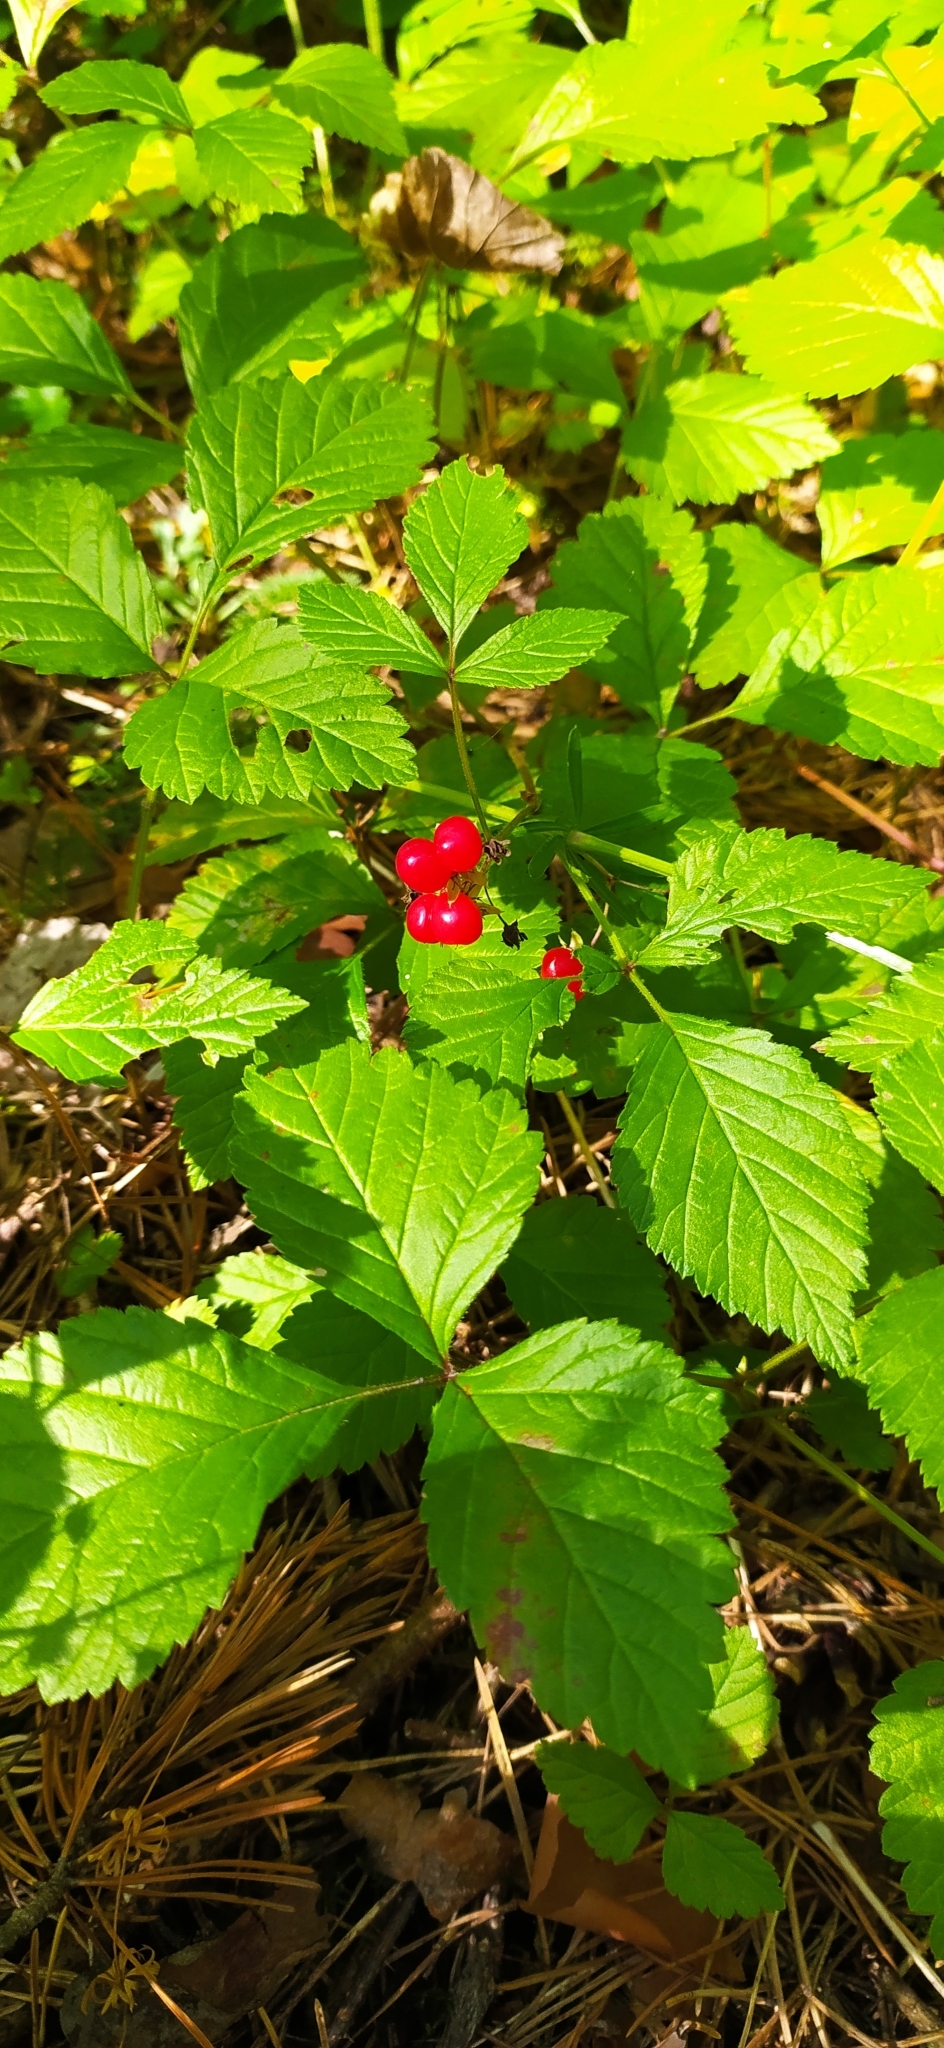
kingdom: Plantae
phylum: Tracheophyta
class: Magnoliopsida
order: Rosales
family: Rosaceae
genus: Rubus
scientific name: Rubus saxatilis
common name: Stone bramble
